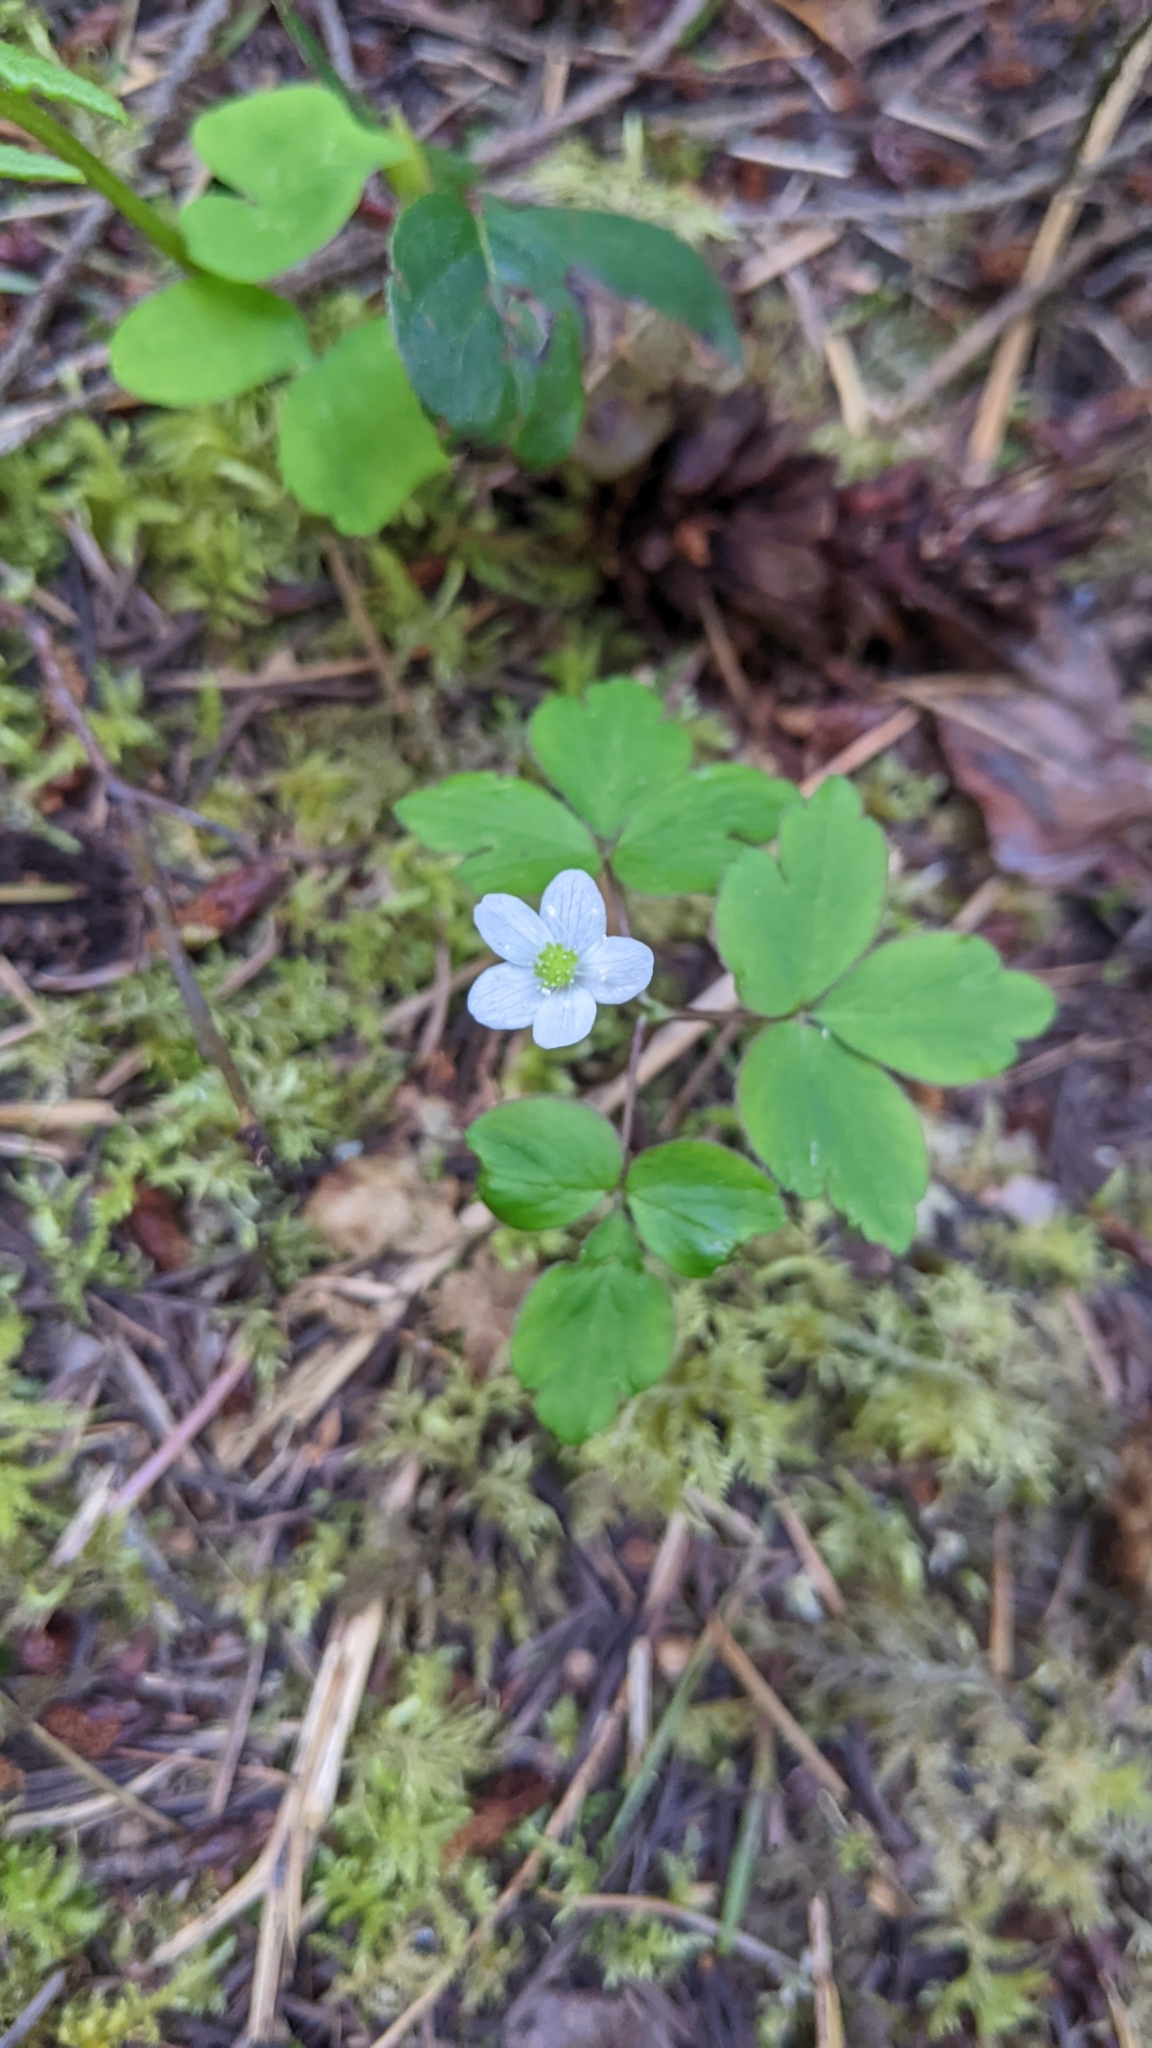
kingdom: Plantae
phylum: Tracheophyta
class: Magnoliopsida
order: Ranunculales
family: Ranunculaceae
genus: Anemone
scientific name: Anemone
